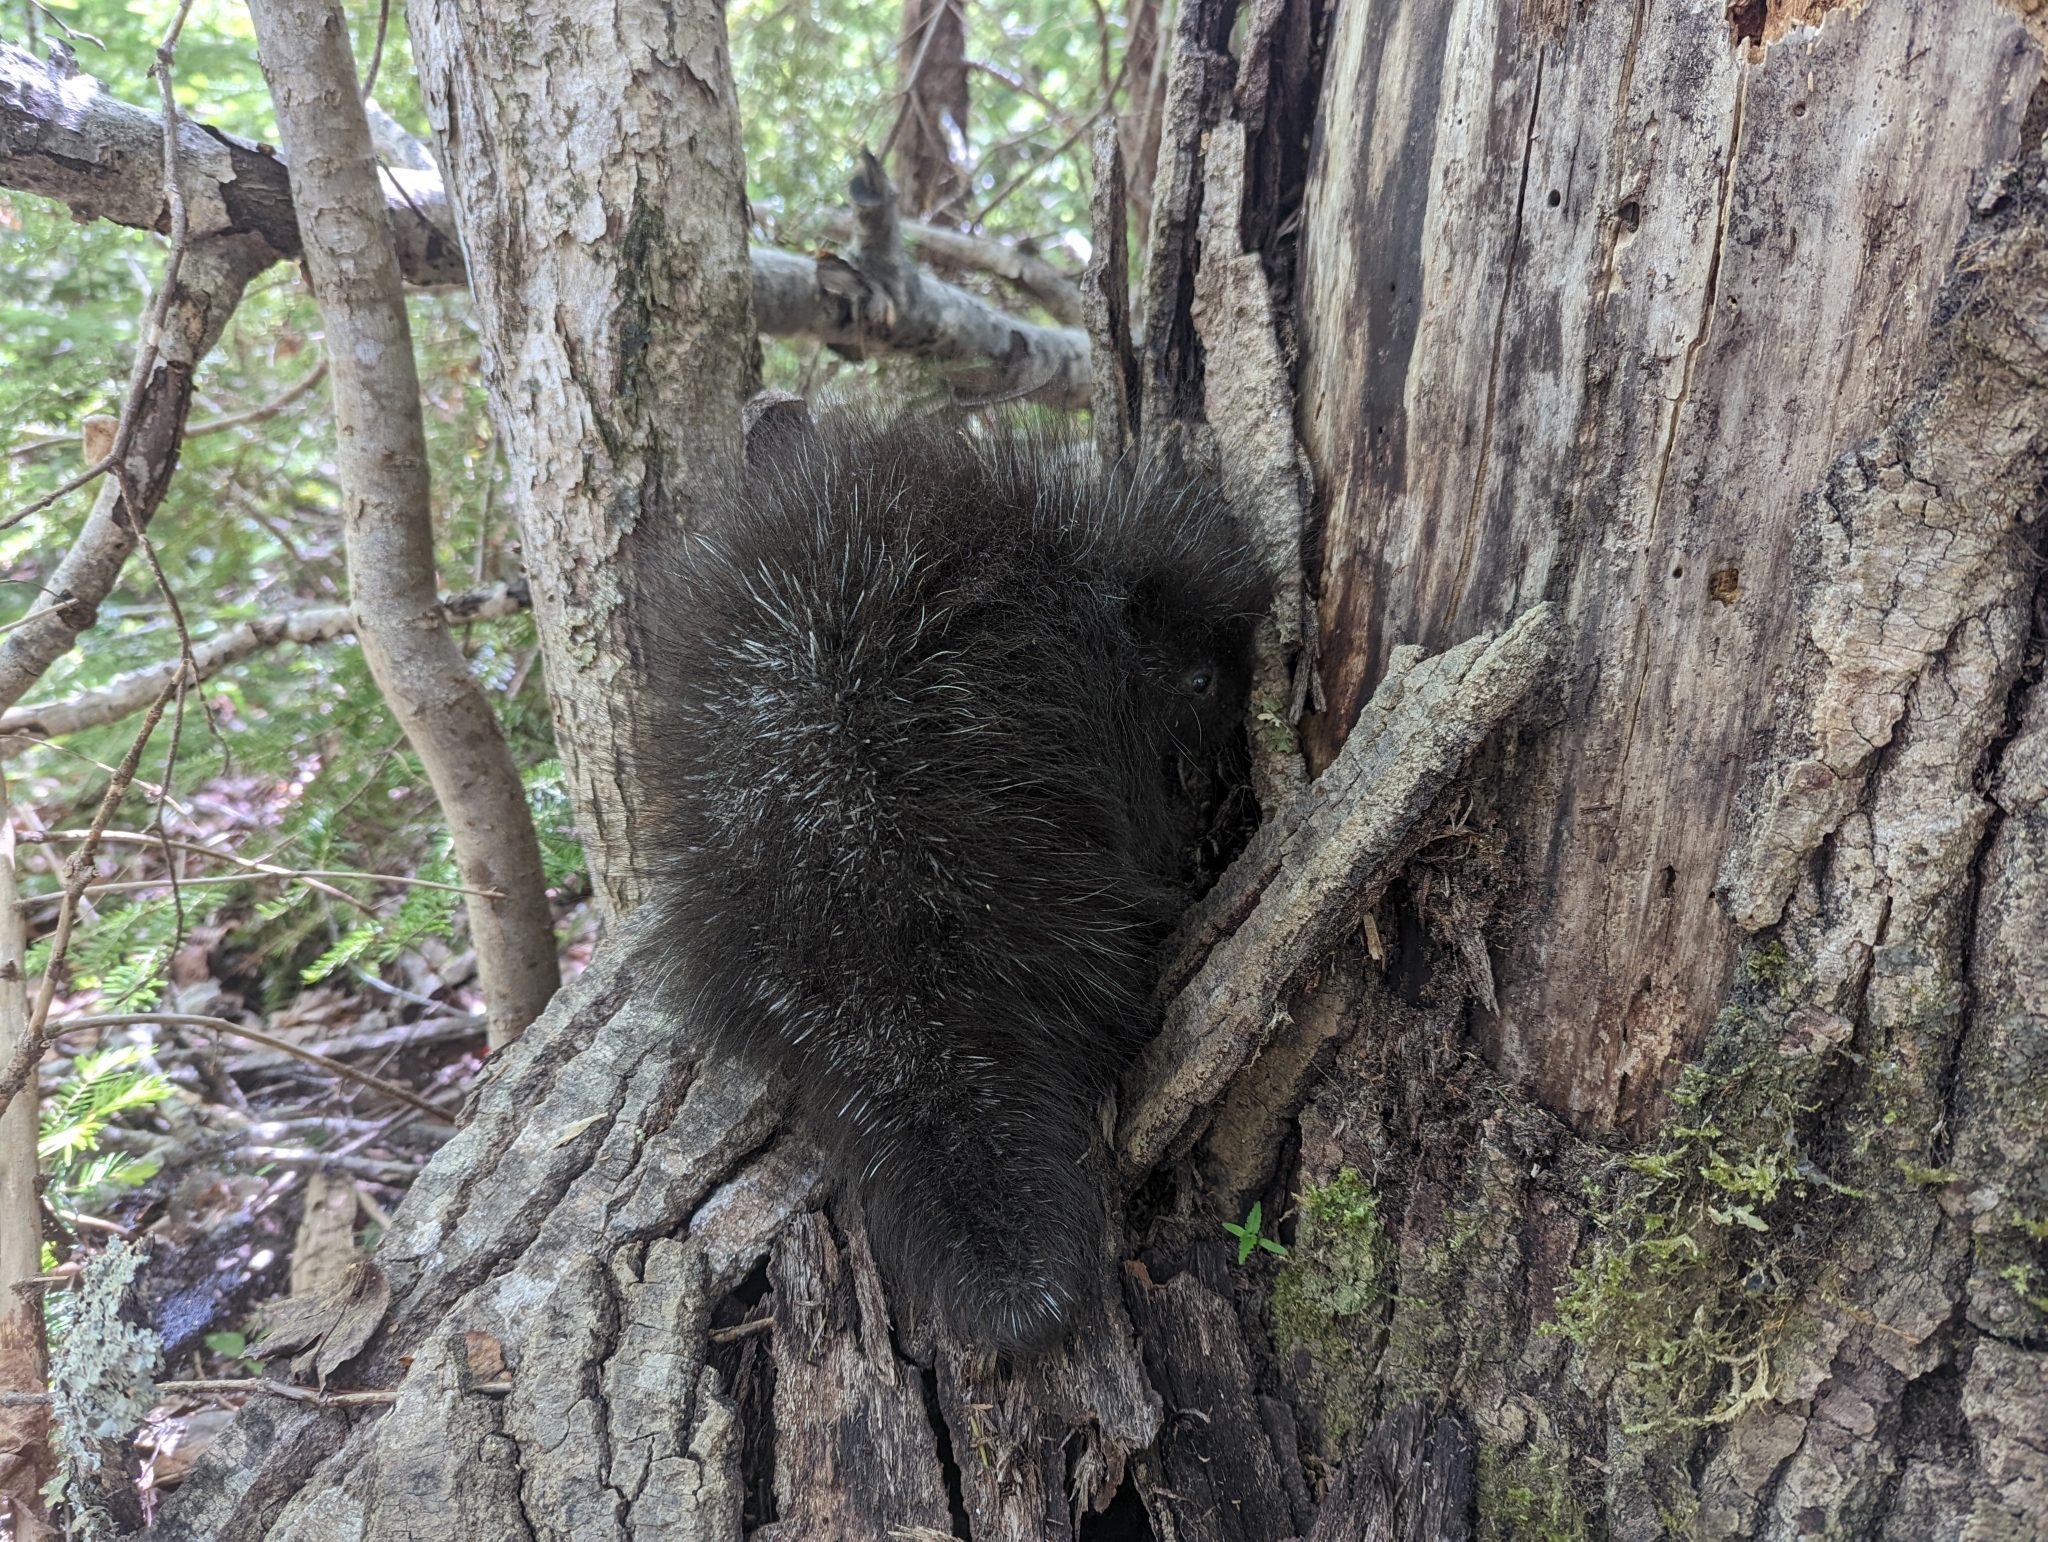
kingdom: Animalia
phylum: Chordata
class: Mammalia
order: Rodentia
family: Erethizontidae
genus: Erethizon
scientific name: Erethizon dorsatus
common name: North american porcupine
